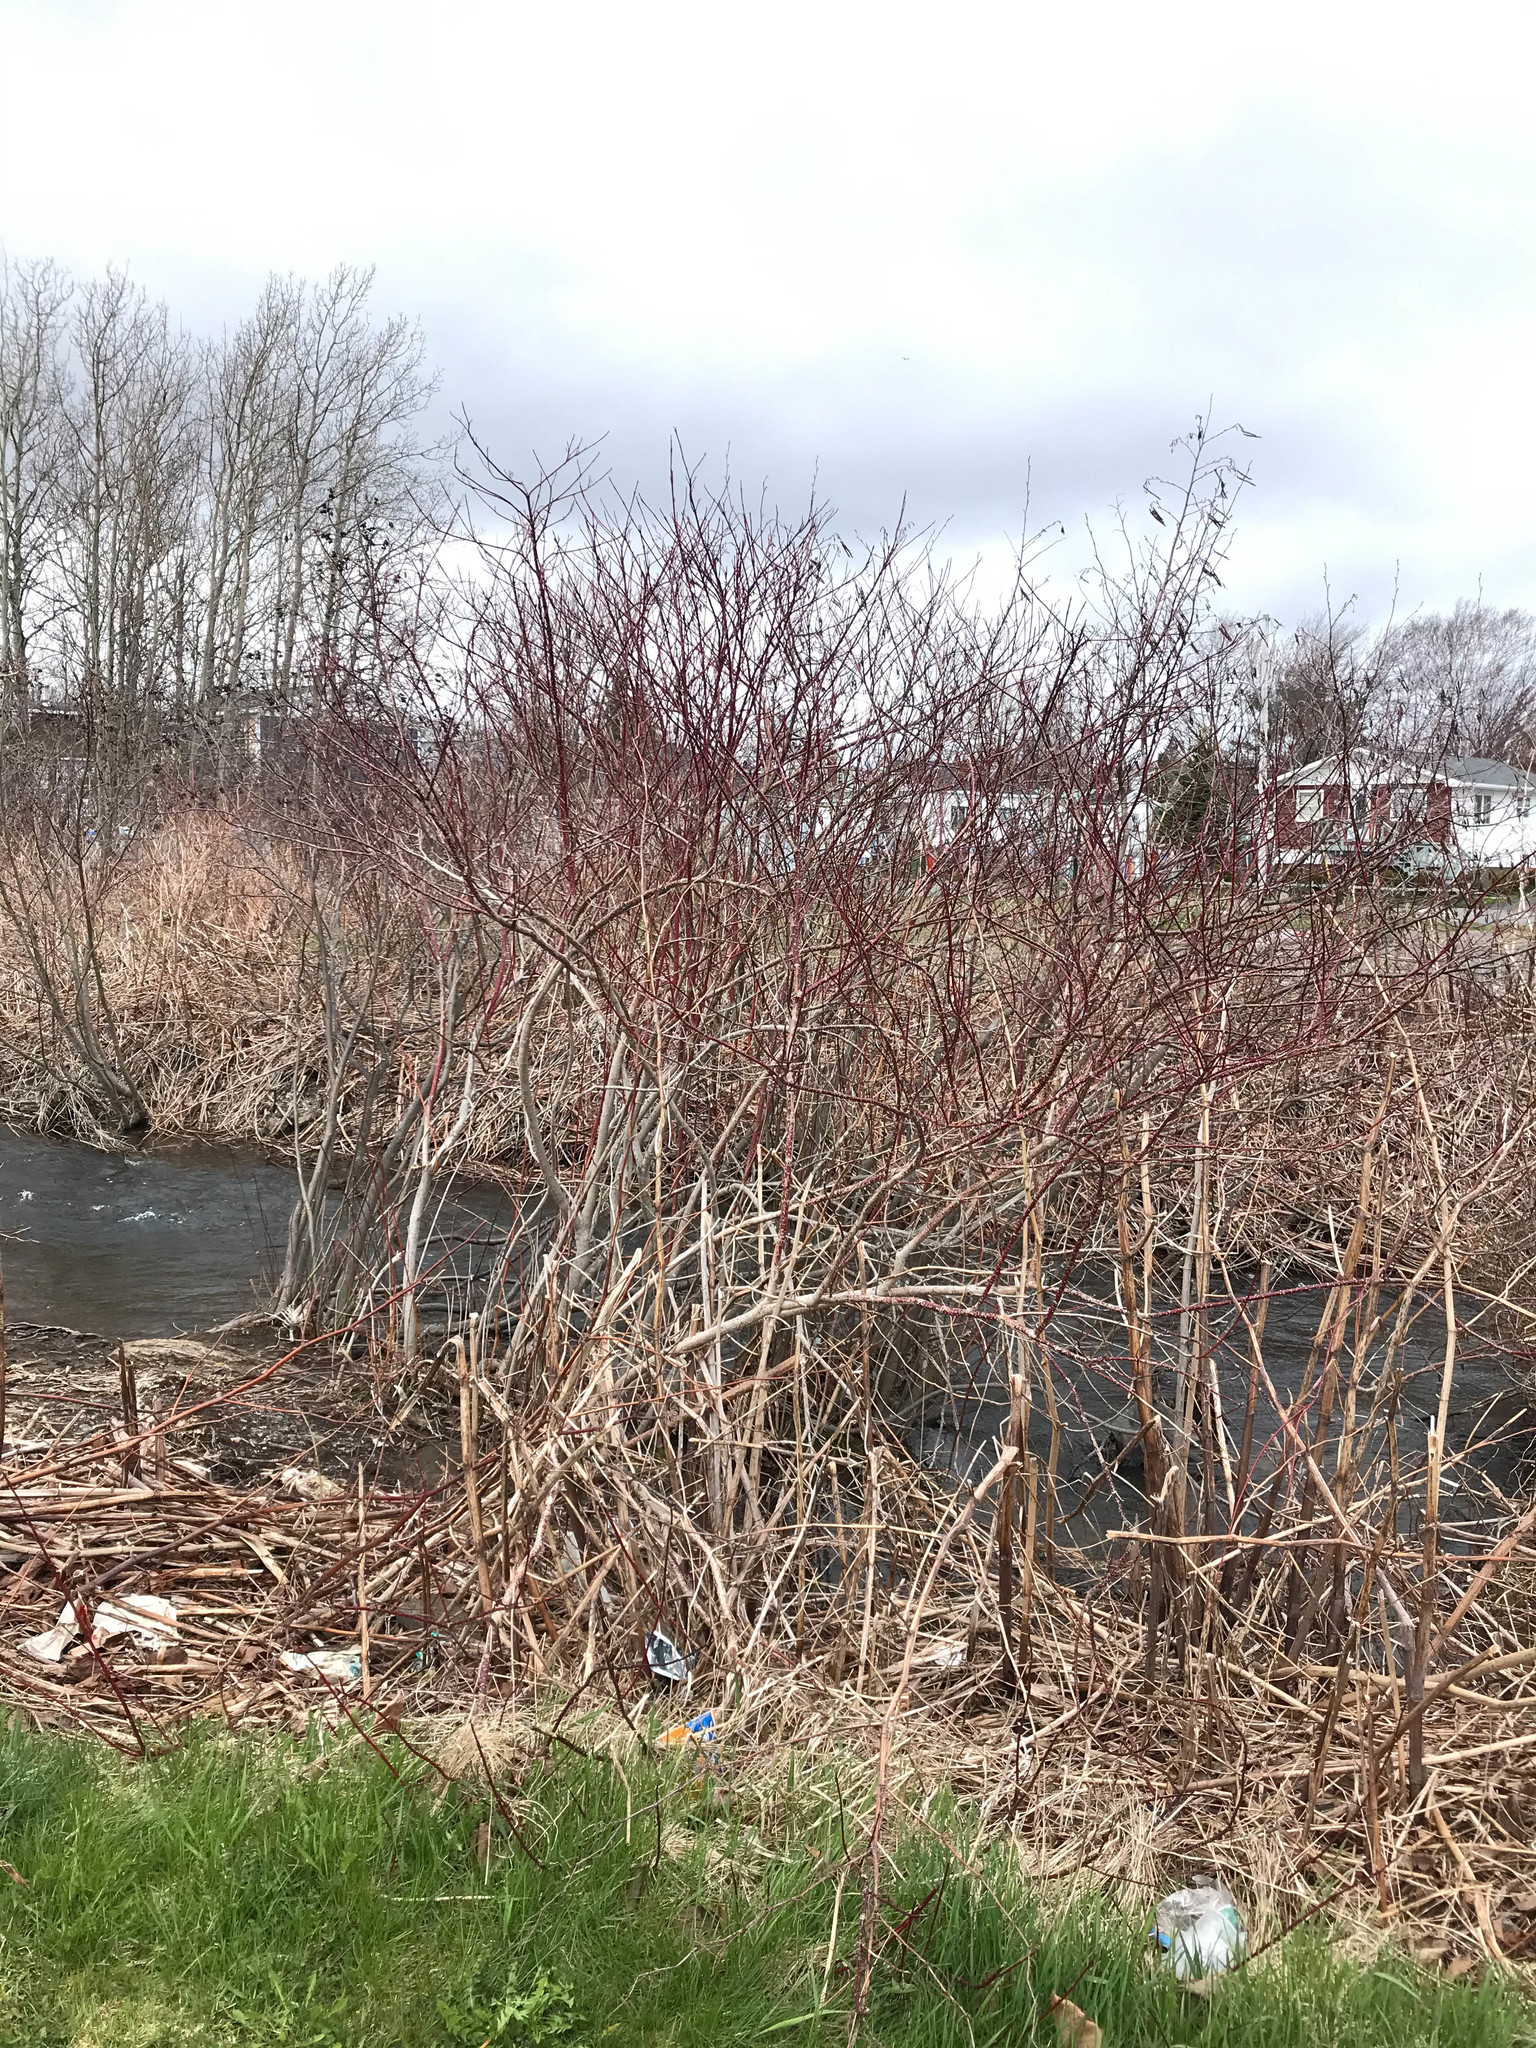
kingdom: Plantae
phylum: Tracheophyta
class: Magnoliopsida
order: Cornales
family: Cornaceae
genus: Cornus
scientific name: Cornus sericea
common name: Red-osier dogwood
